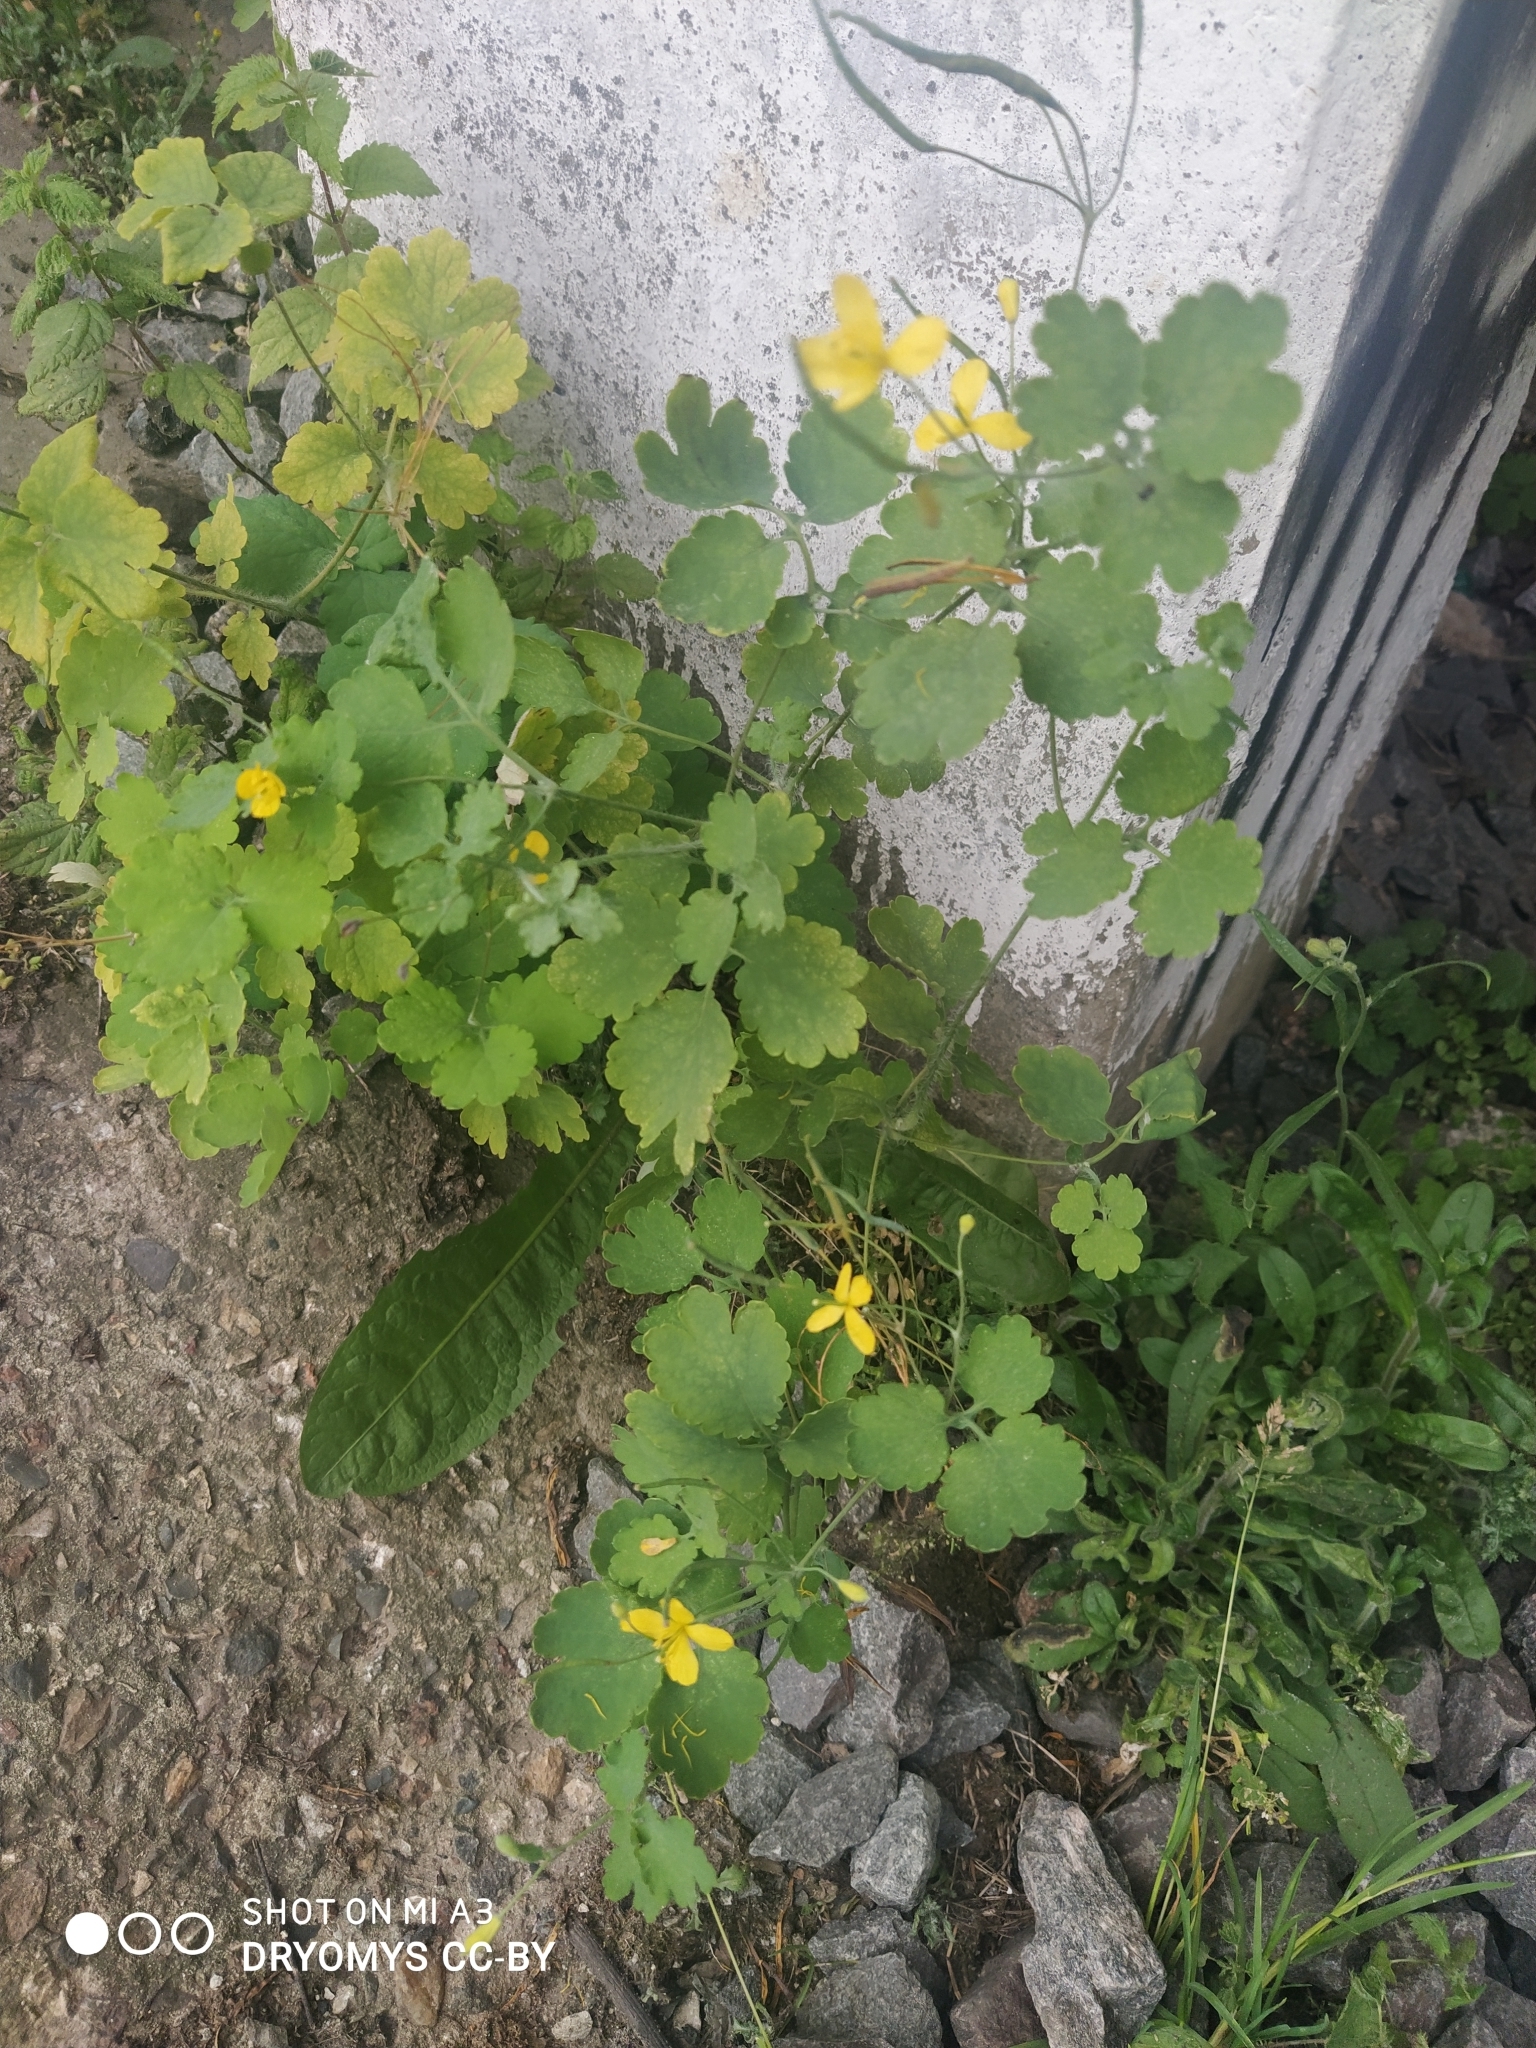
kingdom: Plantae
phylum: Tracheophyta
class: Magnoliopsida
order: Ranunculales
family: Papaveraceae
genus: Chelidonium
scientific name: Chelidonium majus
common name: Greater celandine
